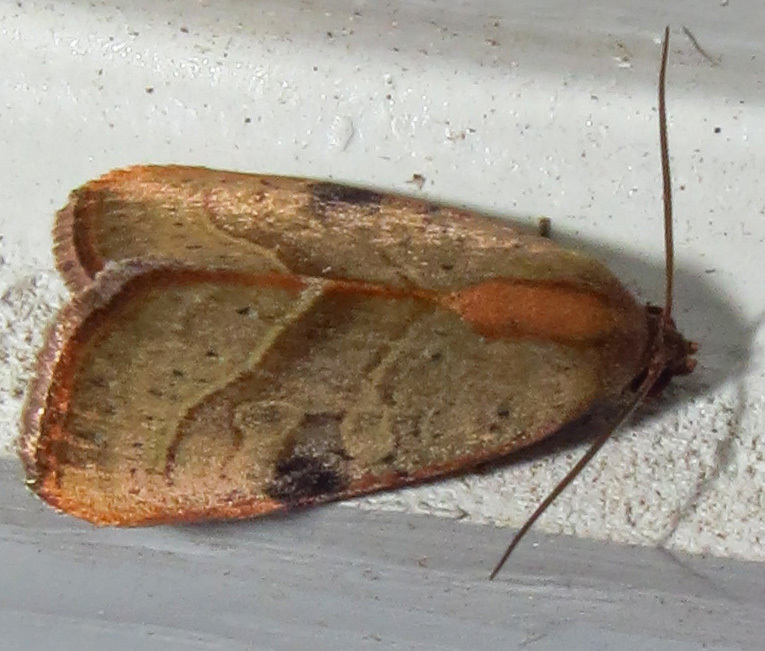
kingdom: Animalia
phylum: Arthropoda
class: Insecta
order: Lepidoptera
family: Noctuidae
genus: Galgula
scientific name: Galgula partita
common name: Wedgeling
